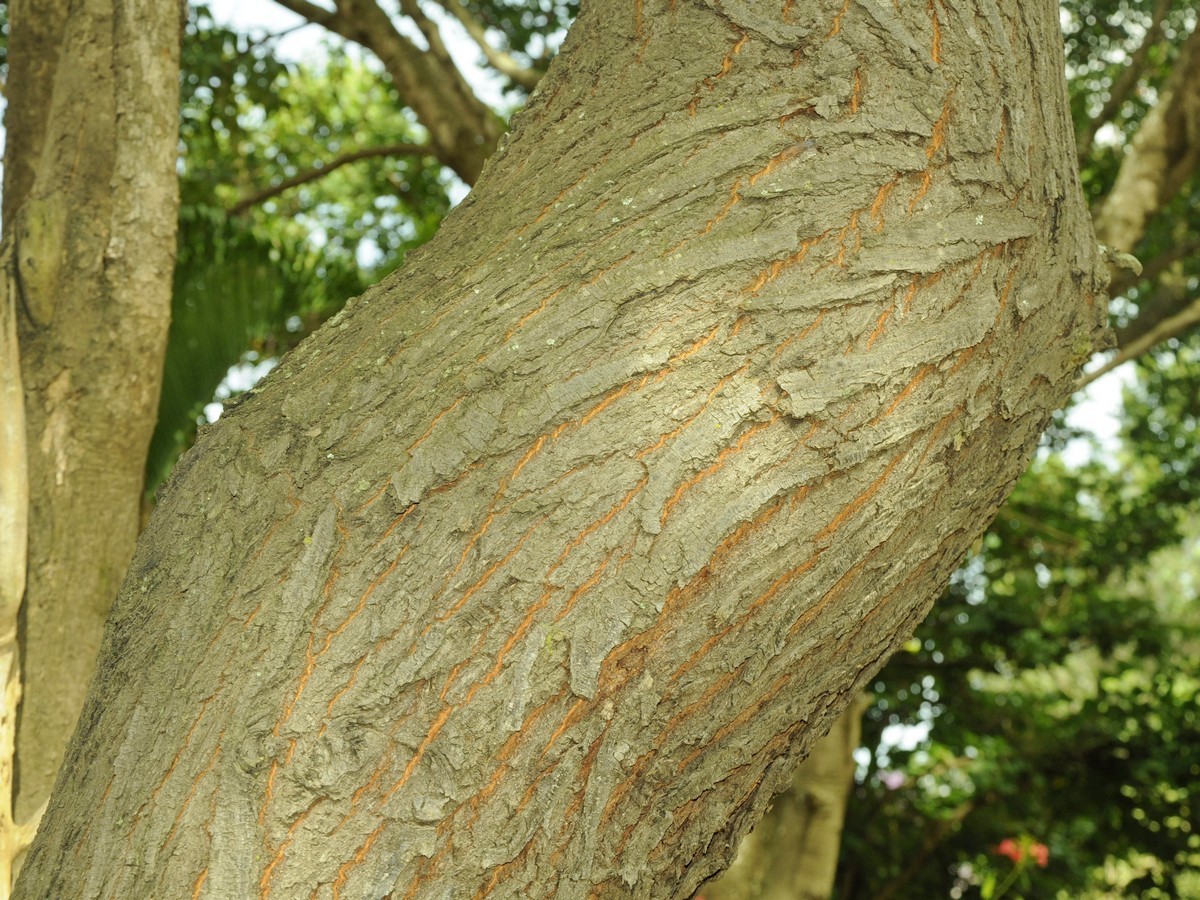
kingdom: Plantae
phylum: Tracheophyta
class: Magnoliopsida
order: Sapindales
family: Meliaceae
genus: Melia
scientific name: Melia azedarach
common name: Chinaberrytree
